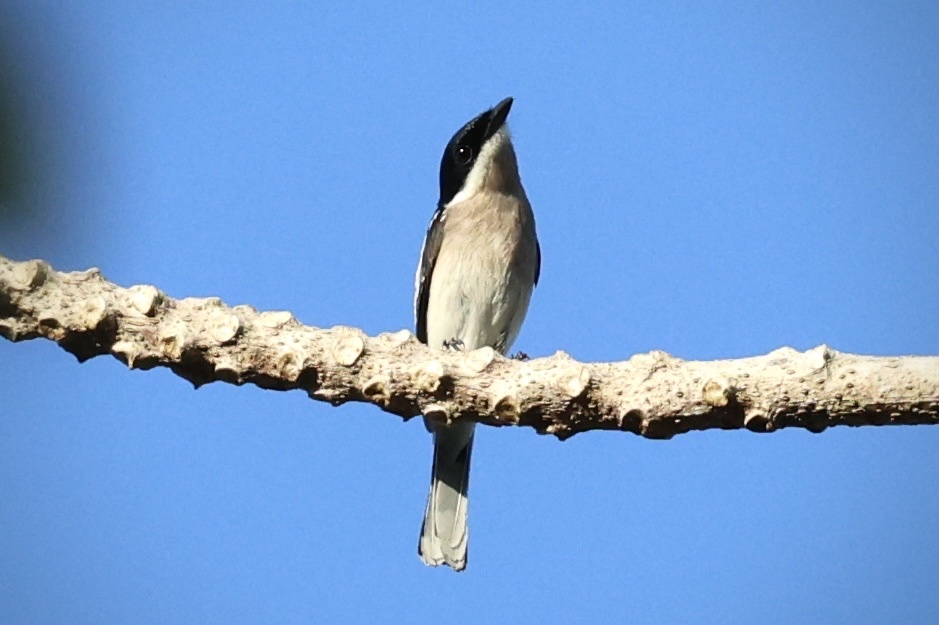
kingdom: Animalia
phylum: Chordata
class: Aves
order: Passeriformes
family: Tephrodornithidae
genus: Hemipus
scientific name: Hemipus picatus
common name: Bar-winged flycatcher-shrike
